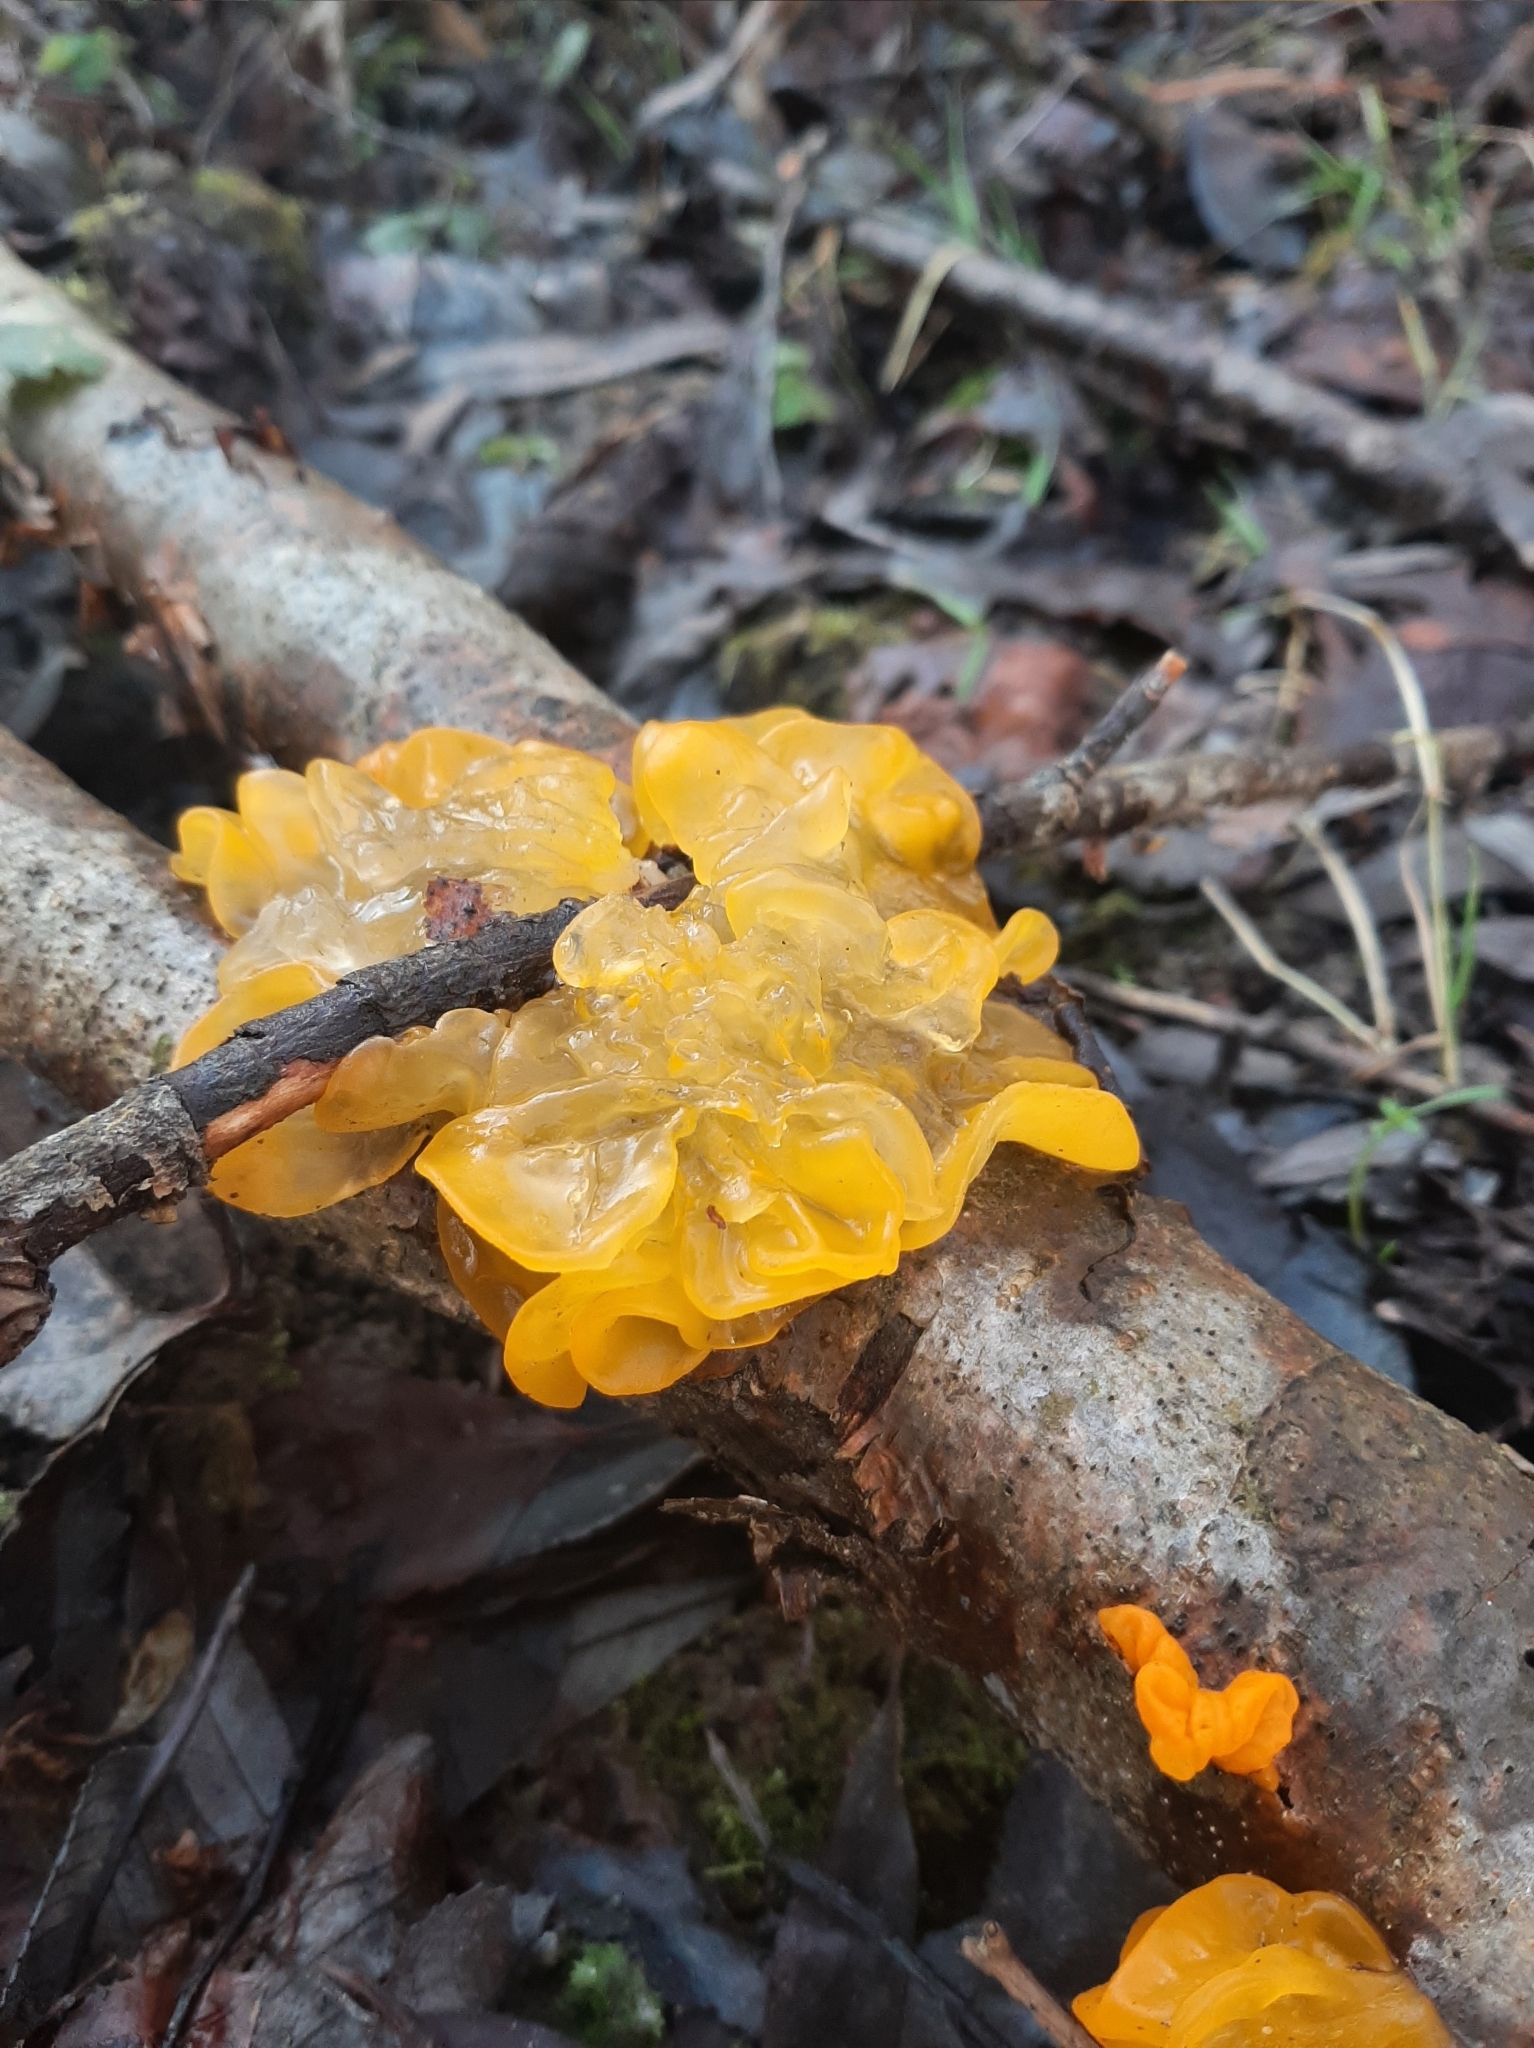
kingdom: Fungi
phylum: Basidiomycota
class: Tremellomycetes
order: Tremellales
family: Tremellaceae
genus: Tremella
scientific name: Tremella mesenterica
